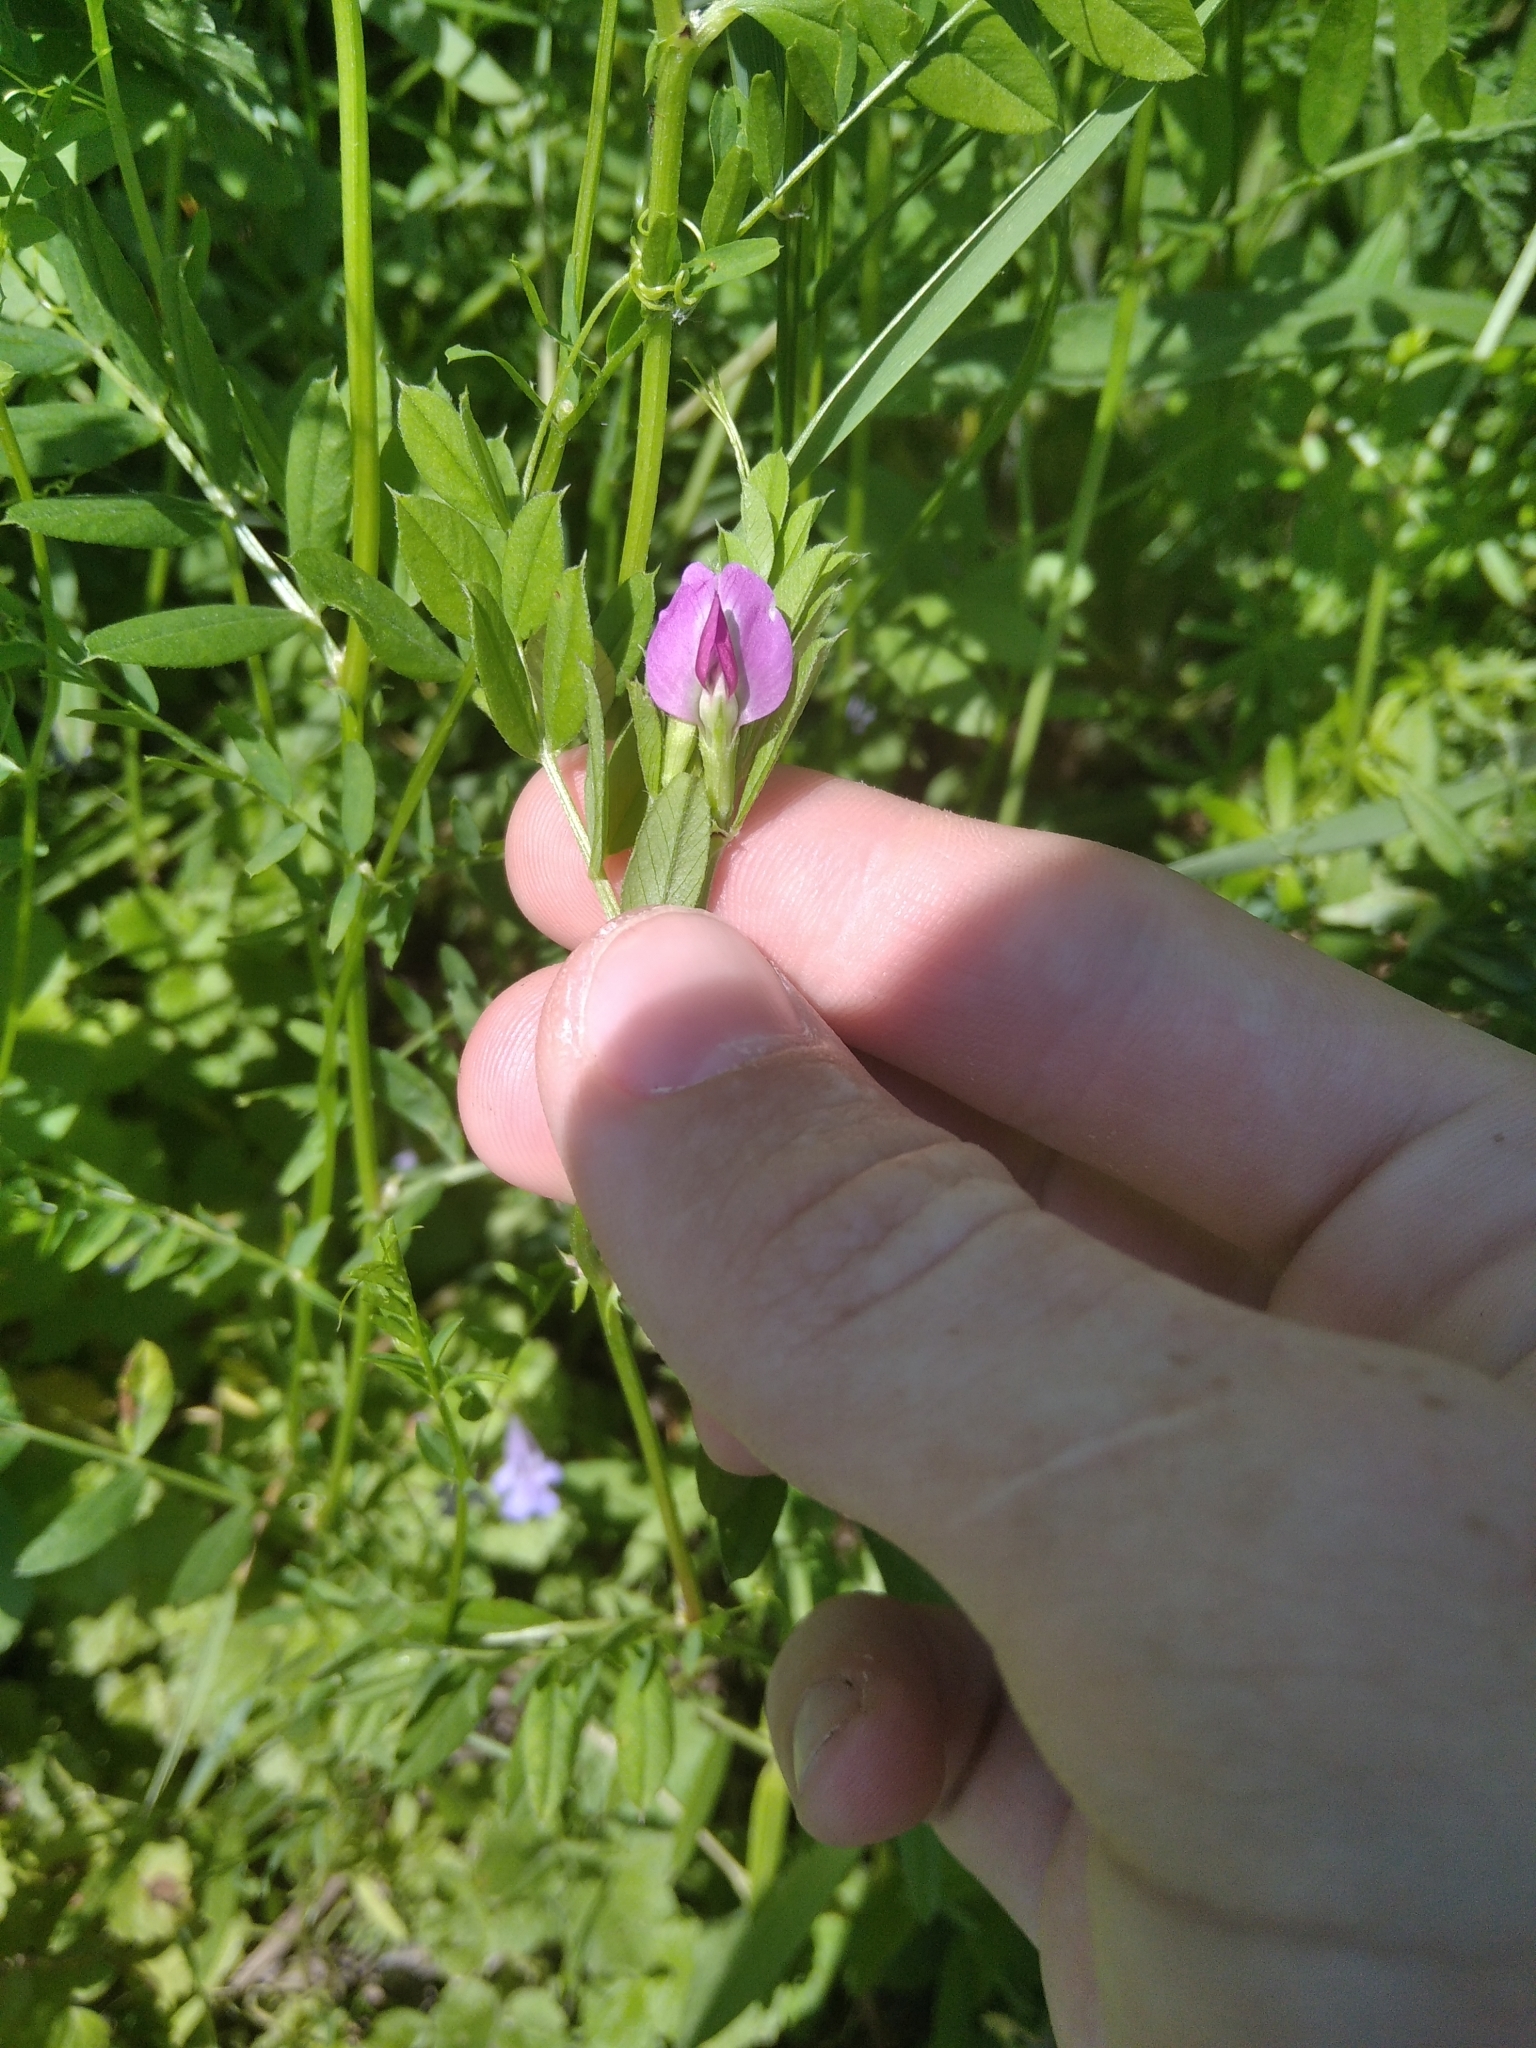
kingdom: Plantae
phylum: Tracheophyta
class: Magnoliopsida
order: Fabales
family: Fabaceae
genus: Vicia
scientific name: Vicia sativa
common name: Garden vetch
